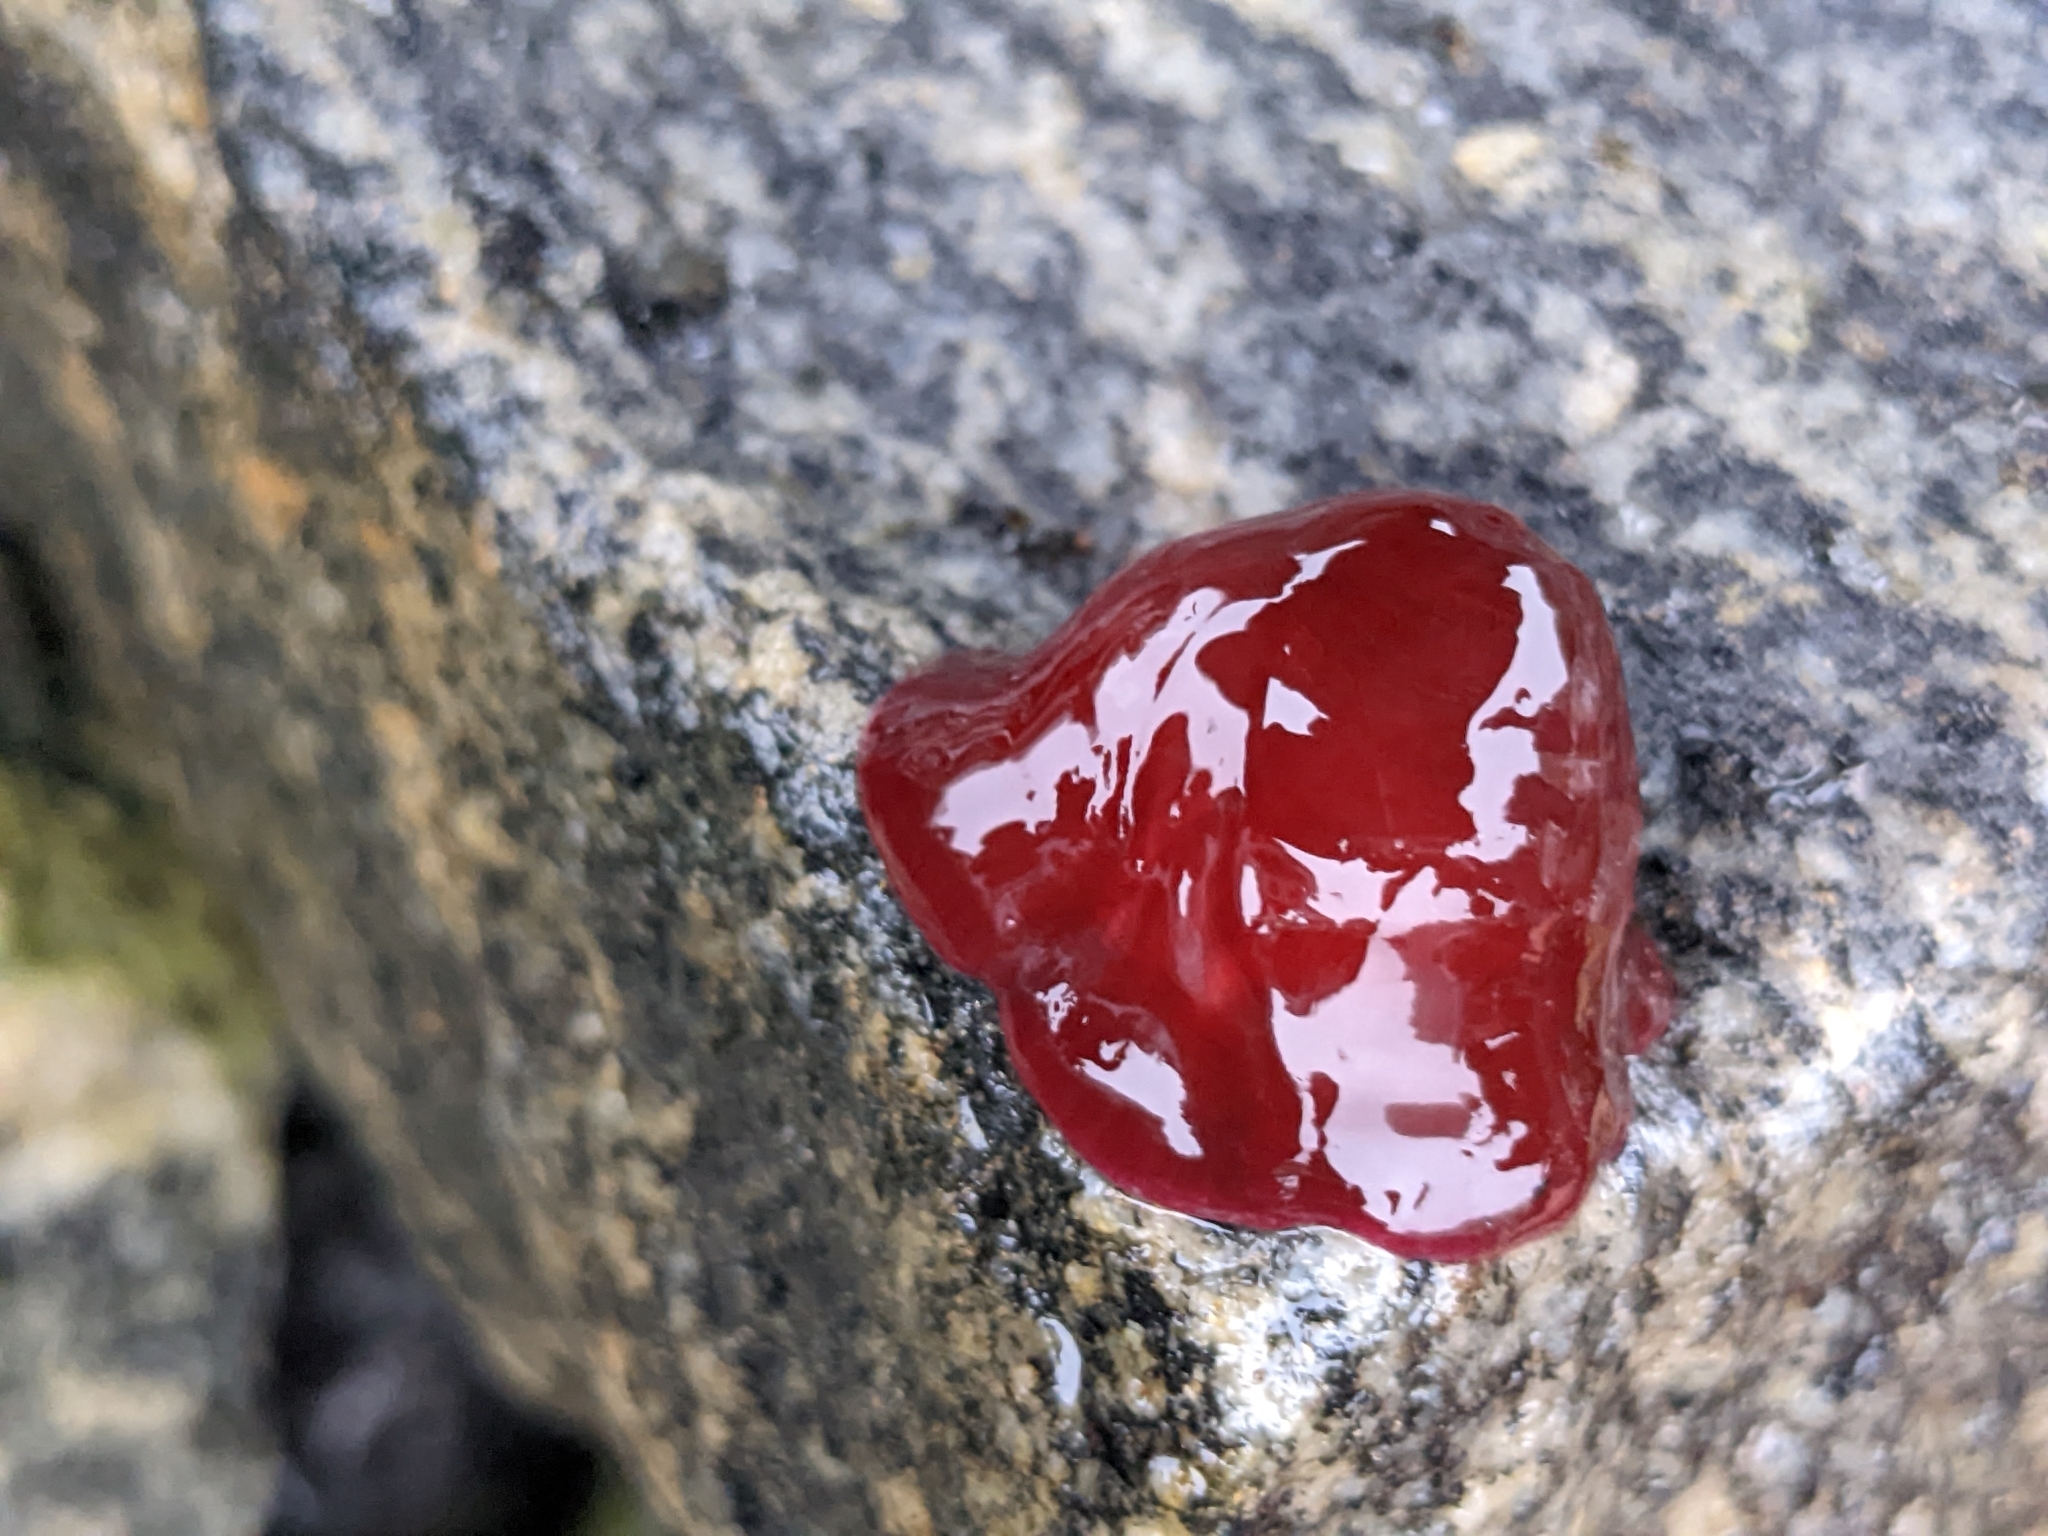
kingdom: Animalia
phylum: Cnidaria
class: Anthozoa
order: Actiniaria
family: Actiniidae
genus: Actinia
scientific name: Actinia equina
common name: Beadlet anemone
